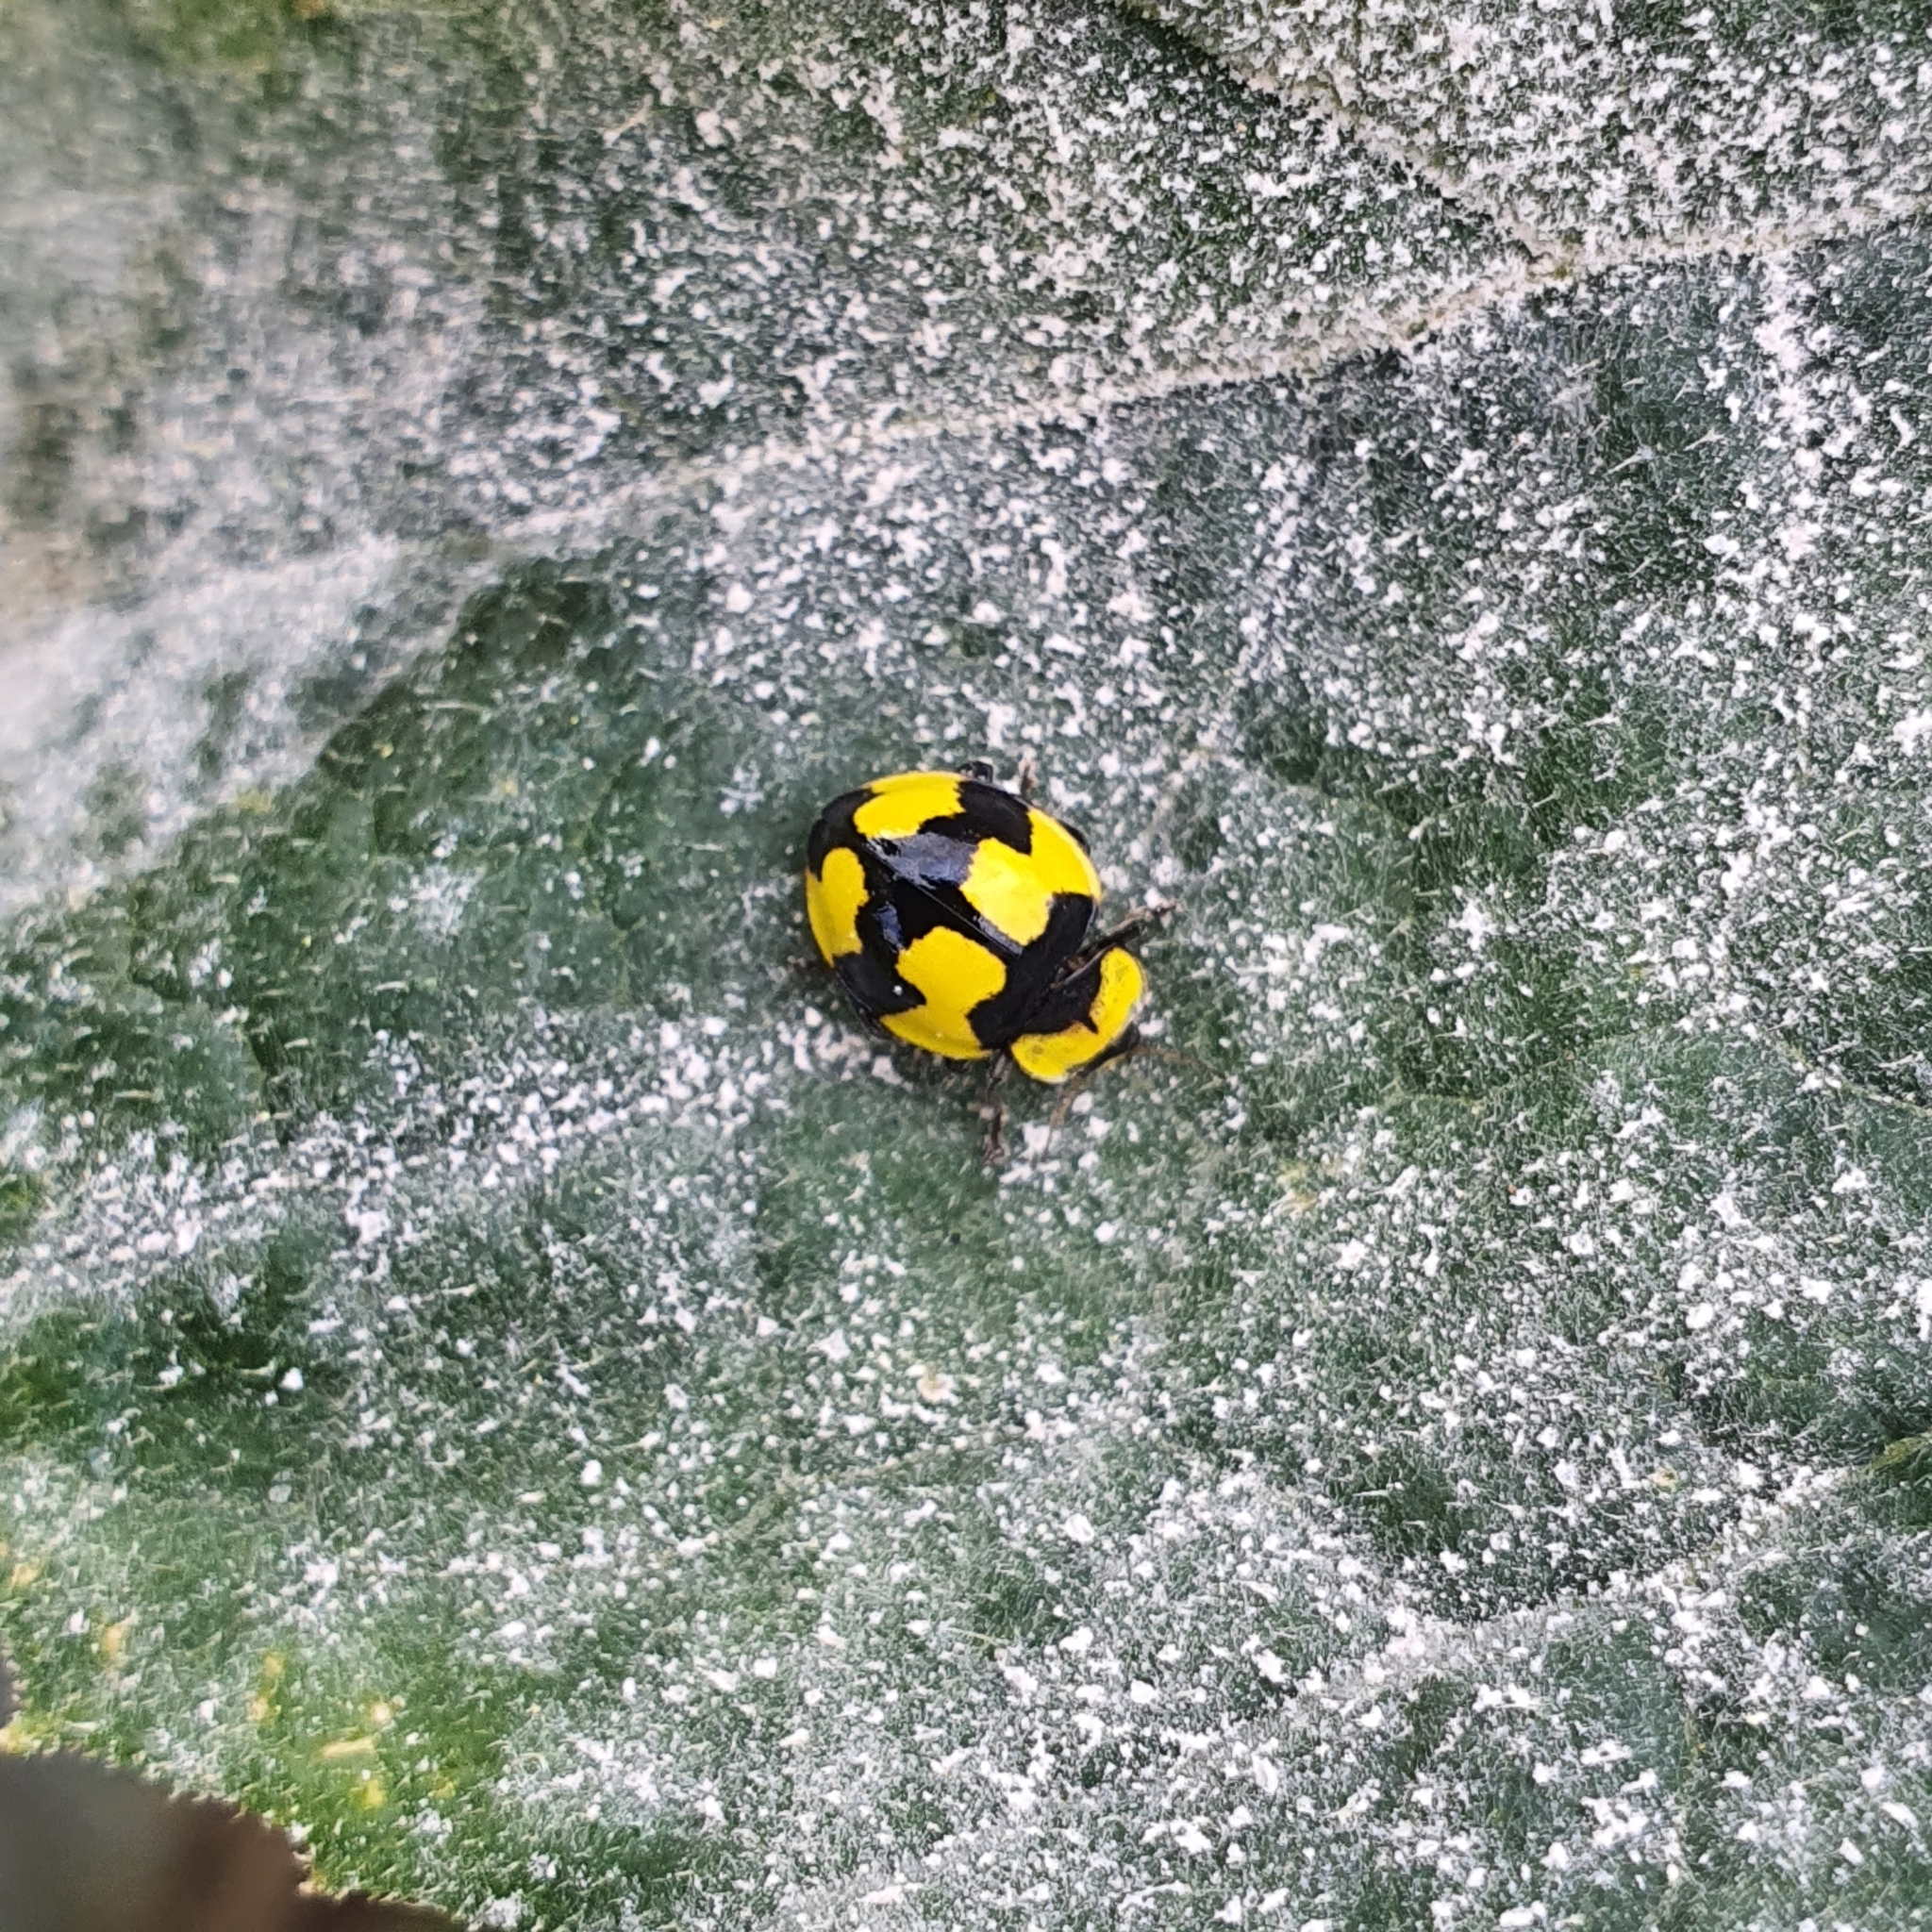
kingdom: Animalia
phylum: Arthropoda
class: Insecta
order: Coleoptera
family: Coccinellidae
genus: Illeis
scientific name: Illeis galbula
